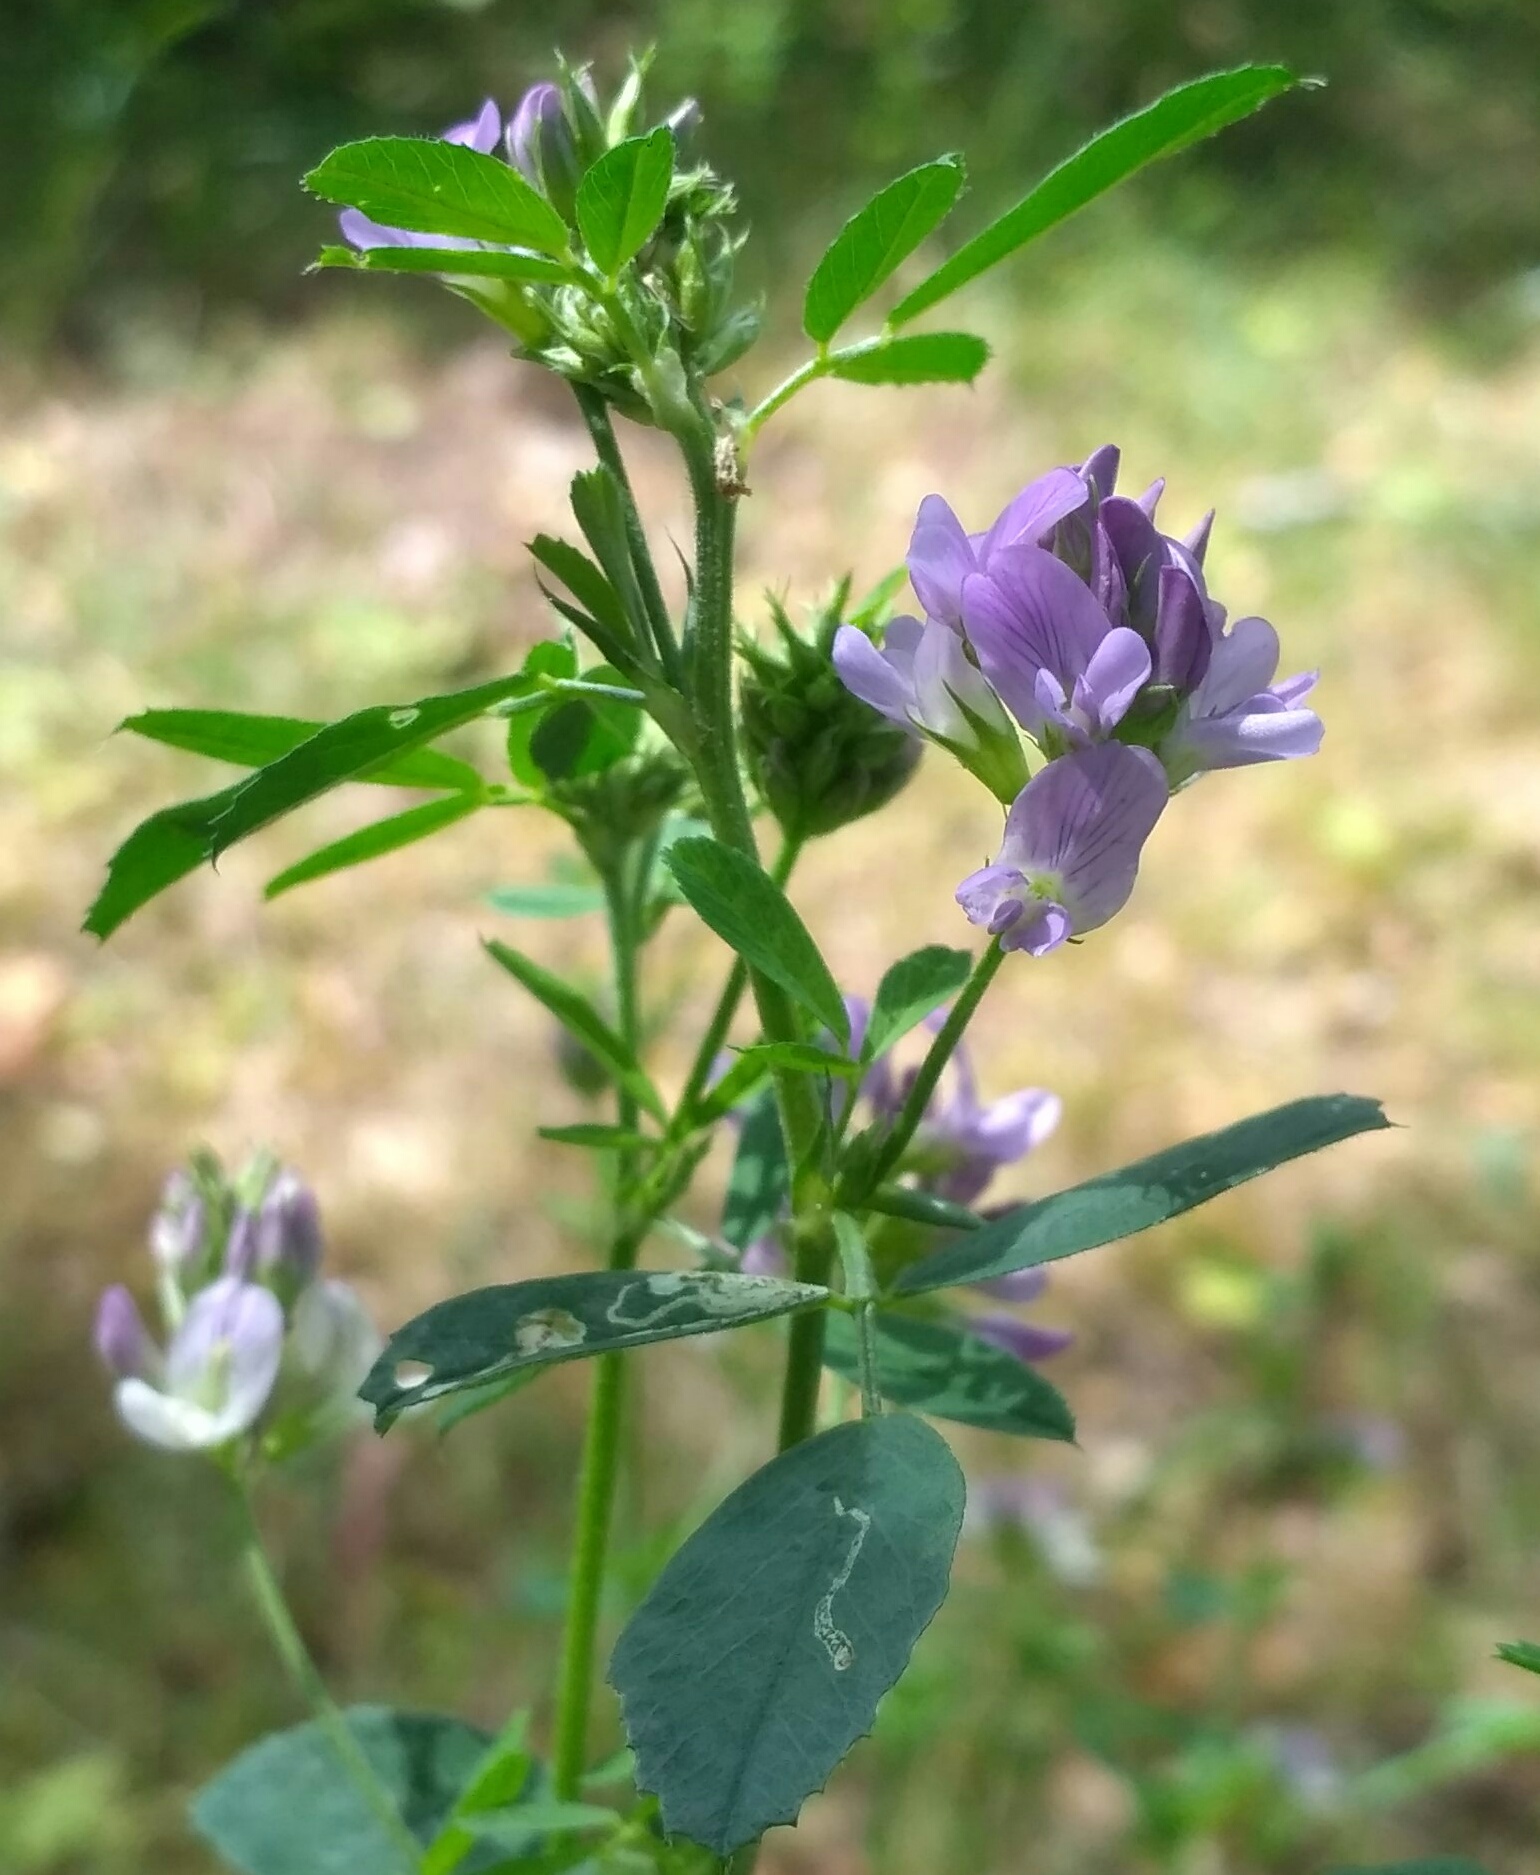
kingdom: Plantae
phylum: Tracheophyta
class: Magnoliopsida
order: Fabales
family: Fabaceae
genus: Medicago
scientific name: Medicago sativa
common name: Alfalfa
